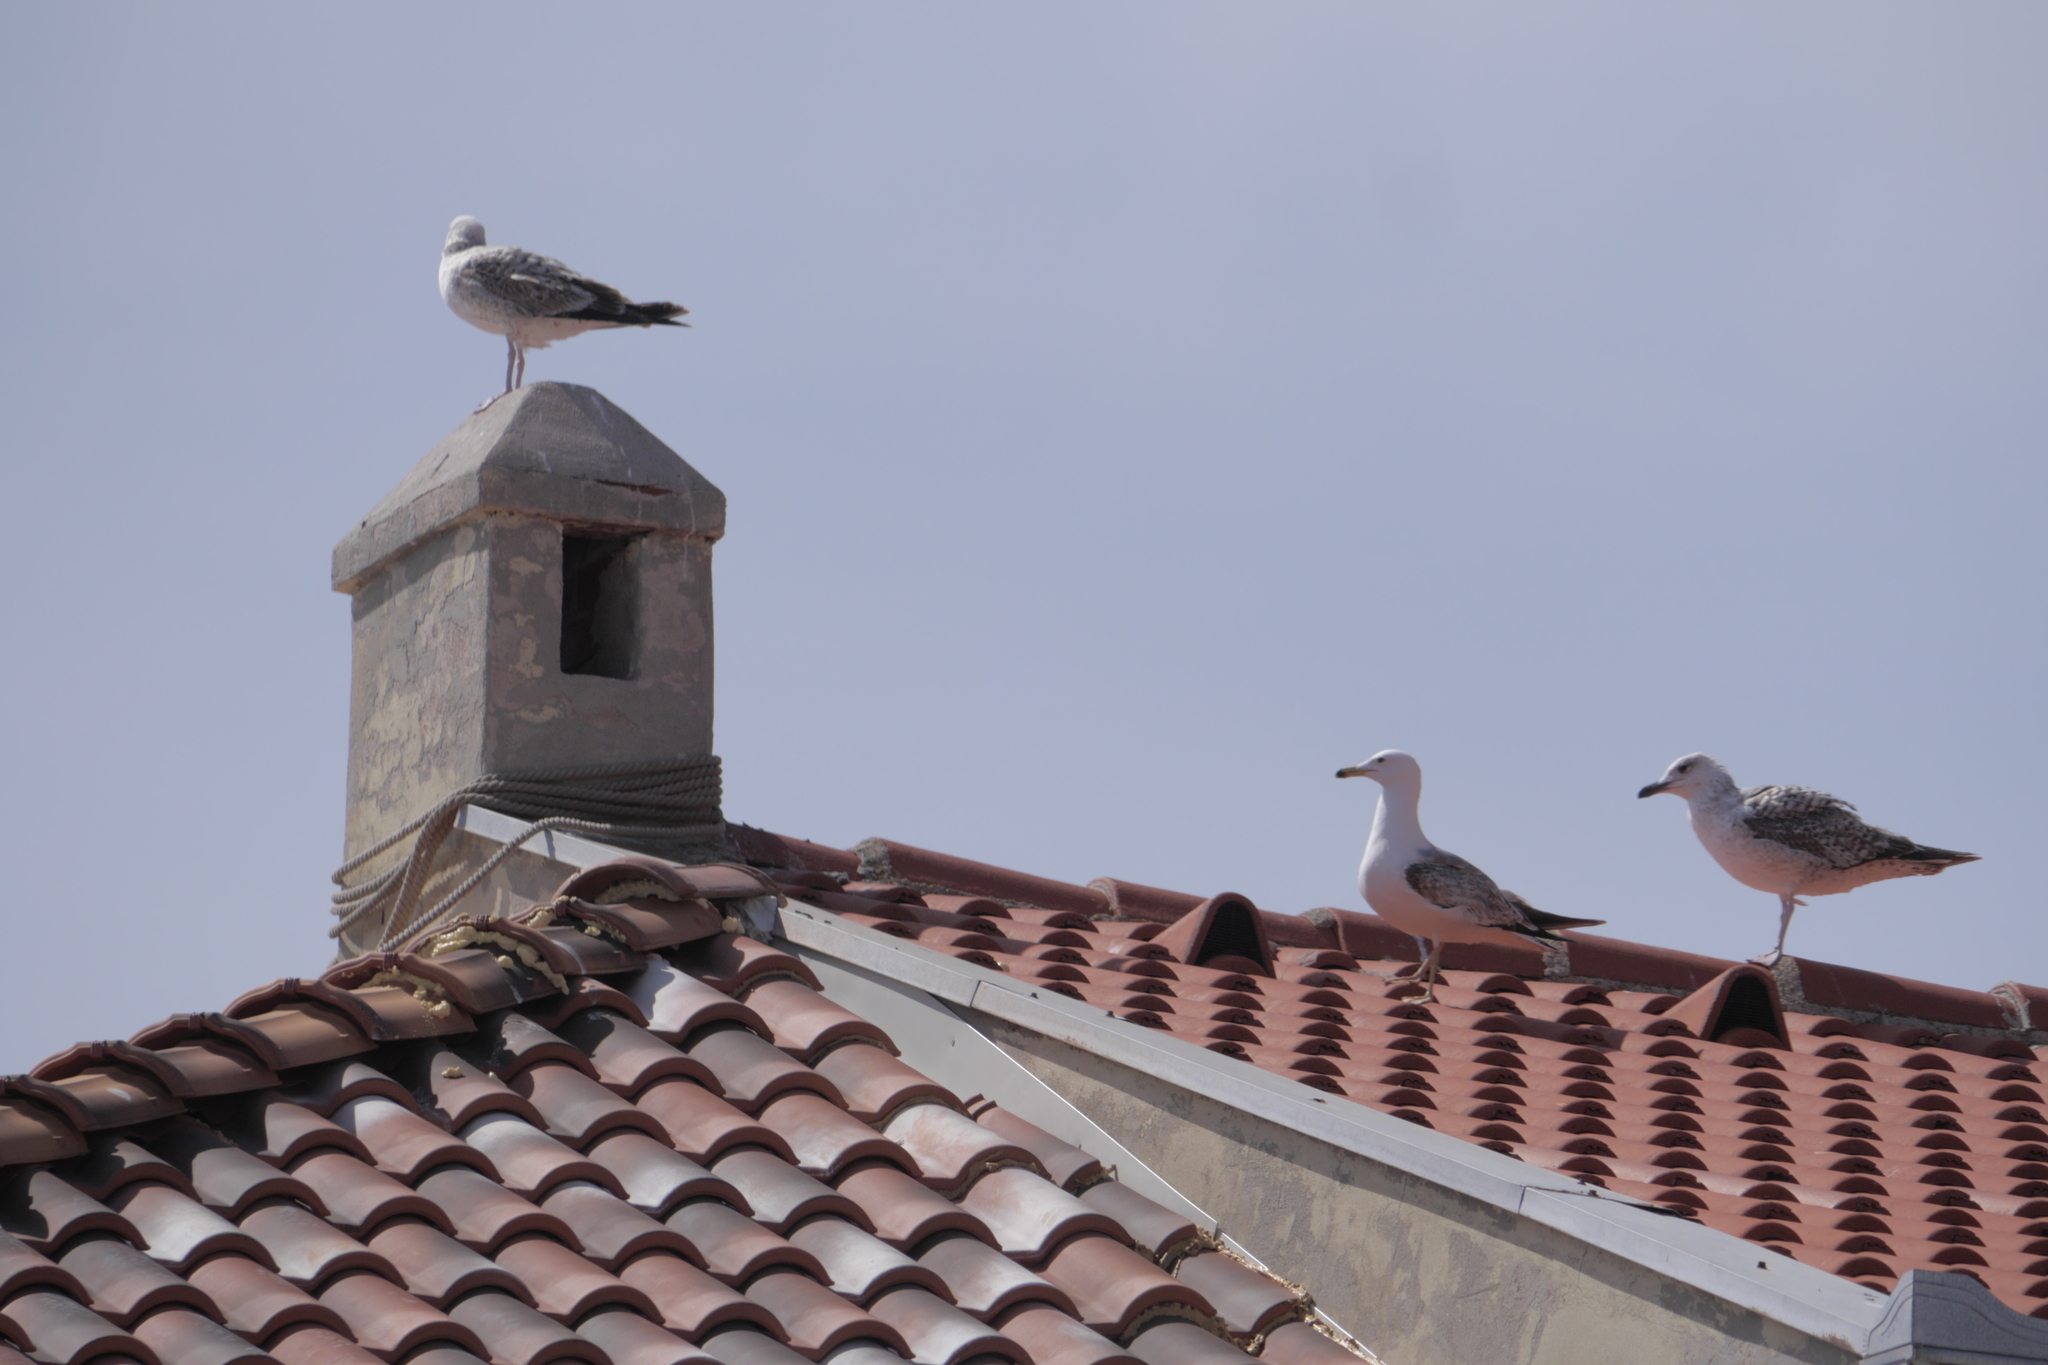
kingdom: Animalia
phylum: Chordata
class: Aves
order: Charadriiformes
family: Laridae
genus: Larus
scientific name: Larus michahellis
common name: Yellow-legged gull
